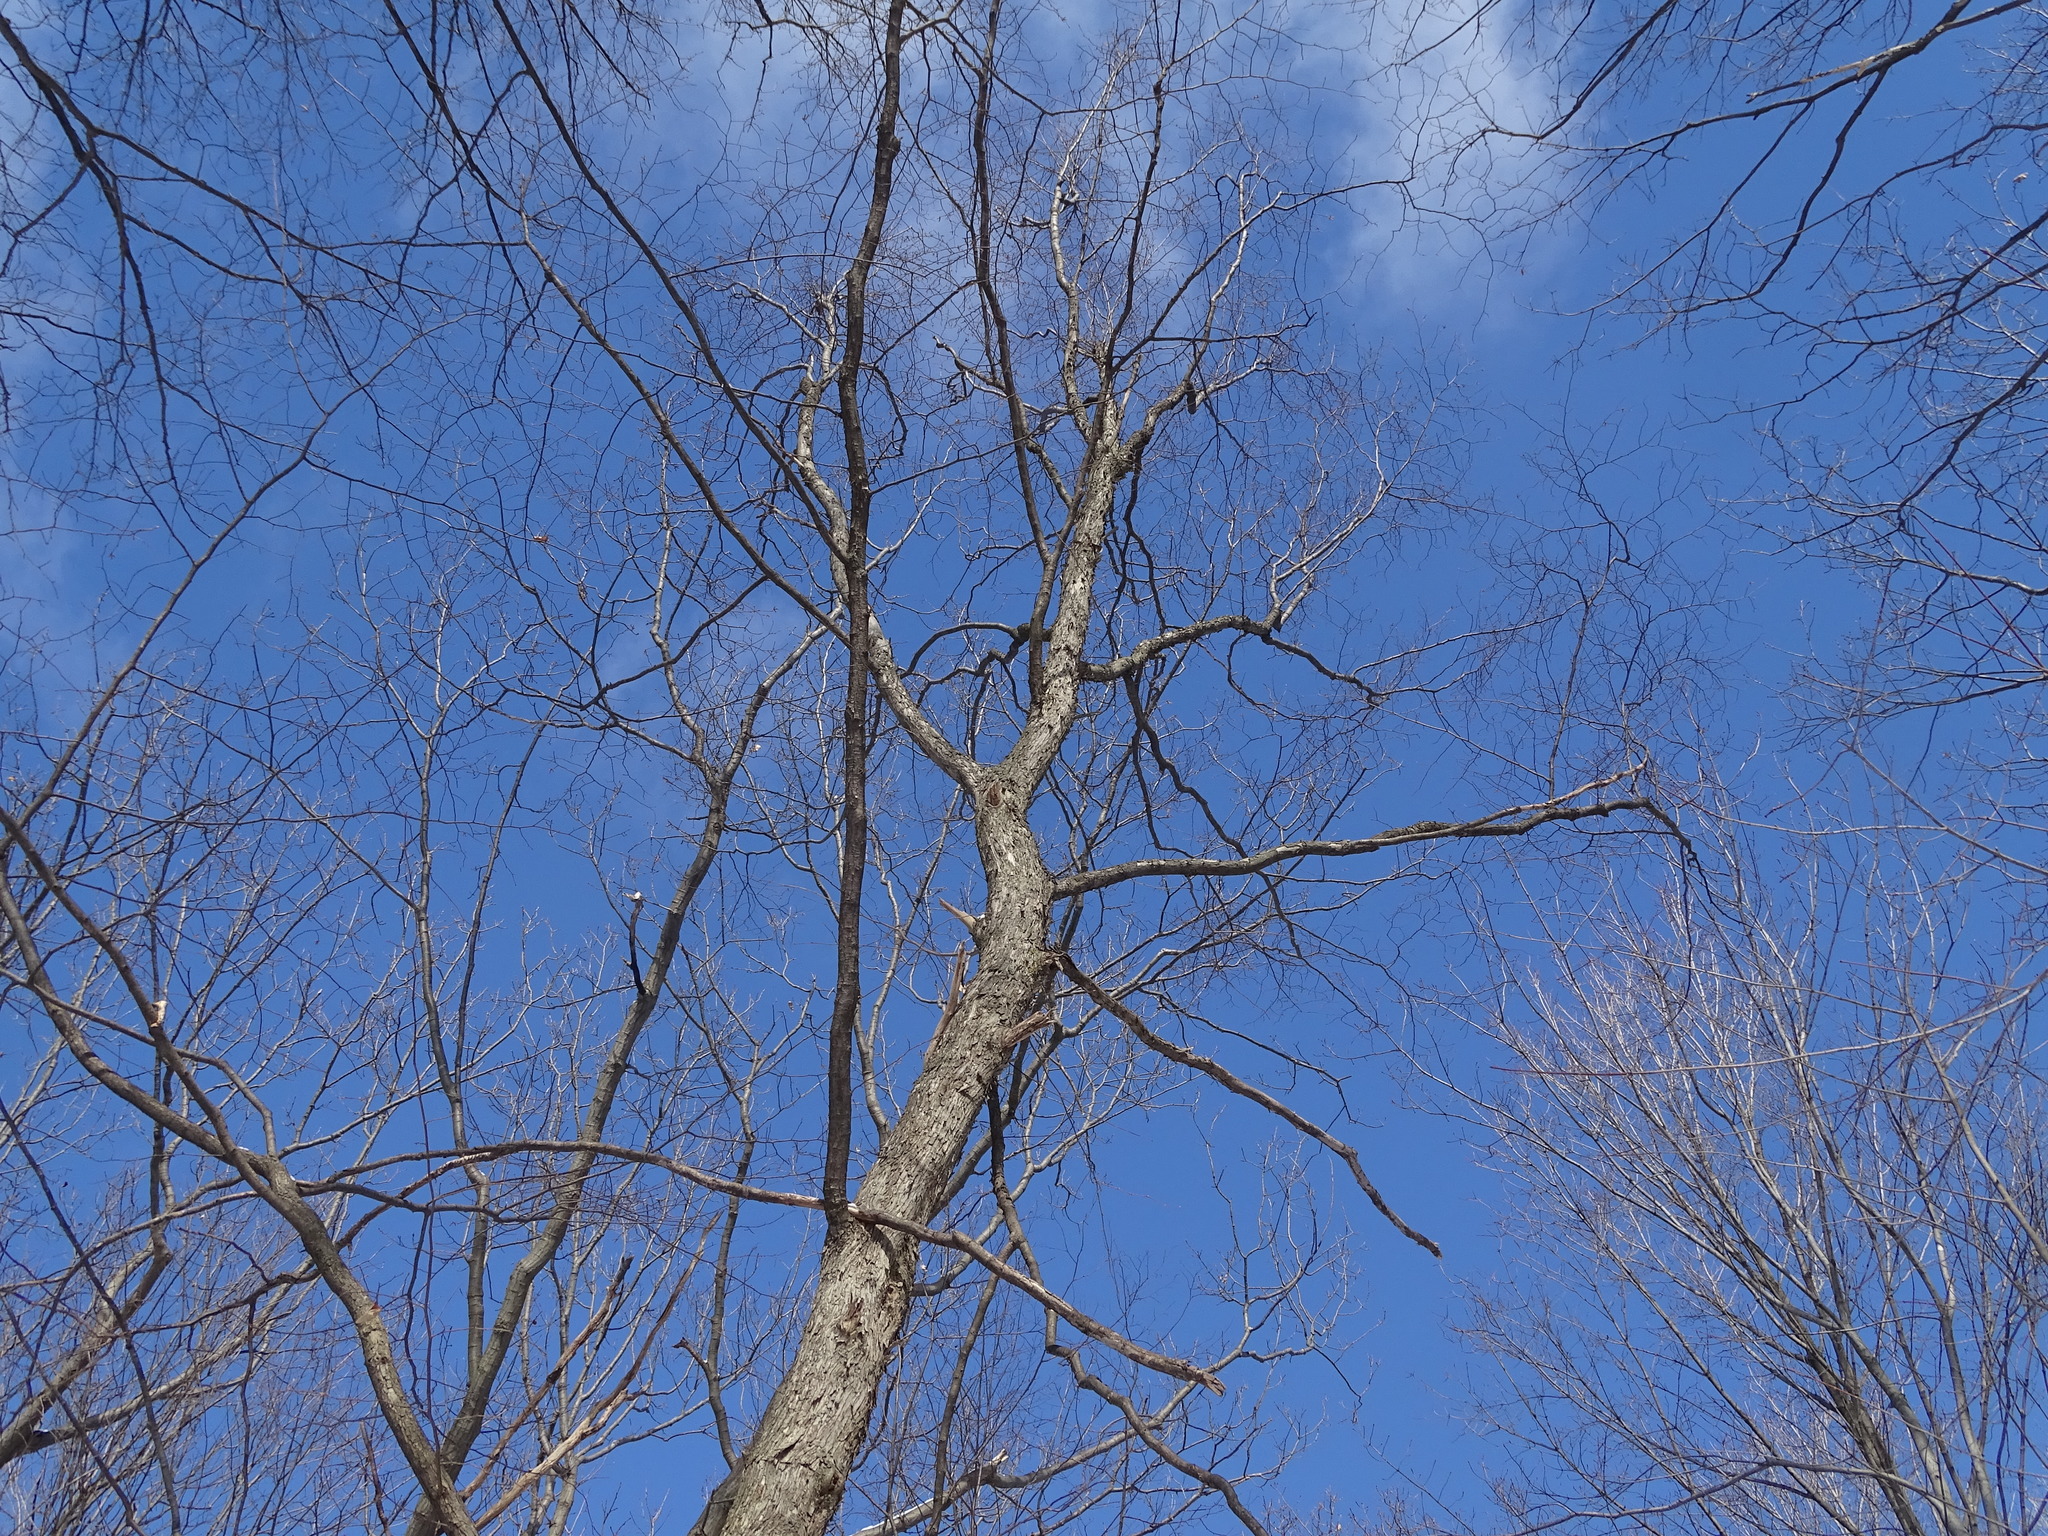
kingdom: Plantae
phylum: Tracheophyta
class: Magnoliopsida
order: Fagales
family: Betulaceae
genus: Ostrya
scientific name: Ostrya virginiana
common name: Ironwood
